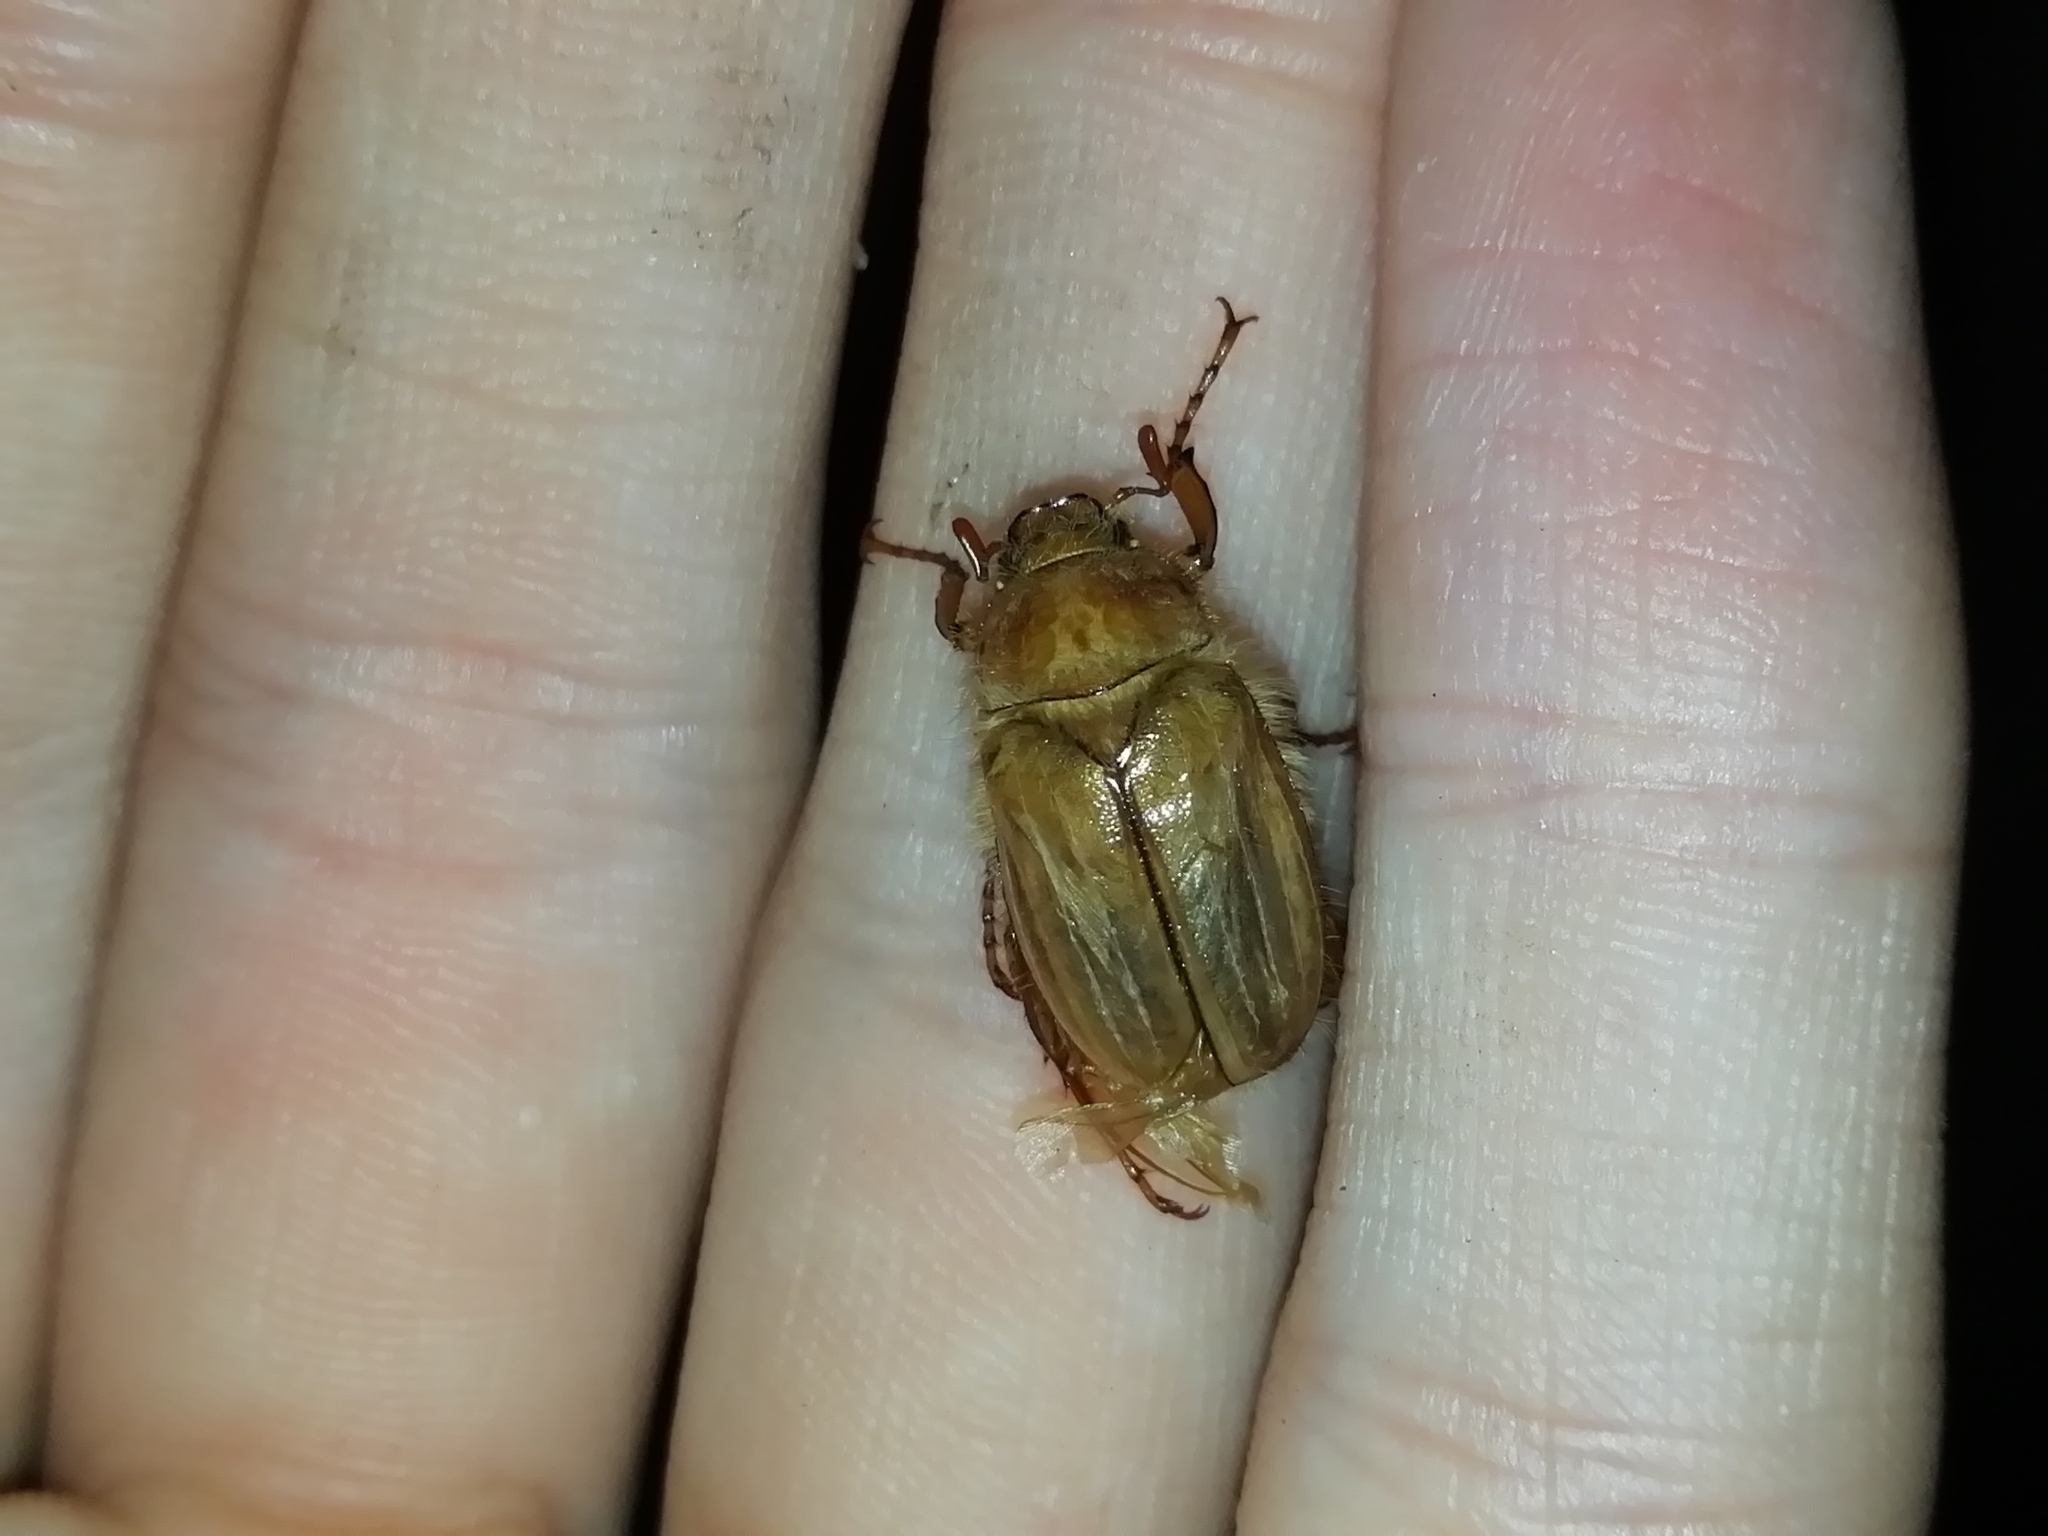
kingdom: Animalia
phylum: Arthropoda
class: Insecta
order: Coleoptera
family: Scarabaeidae
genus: Amphimallon
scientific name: Amphimallon solstitiale
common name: Summer chafer
